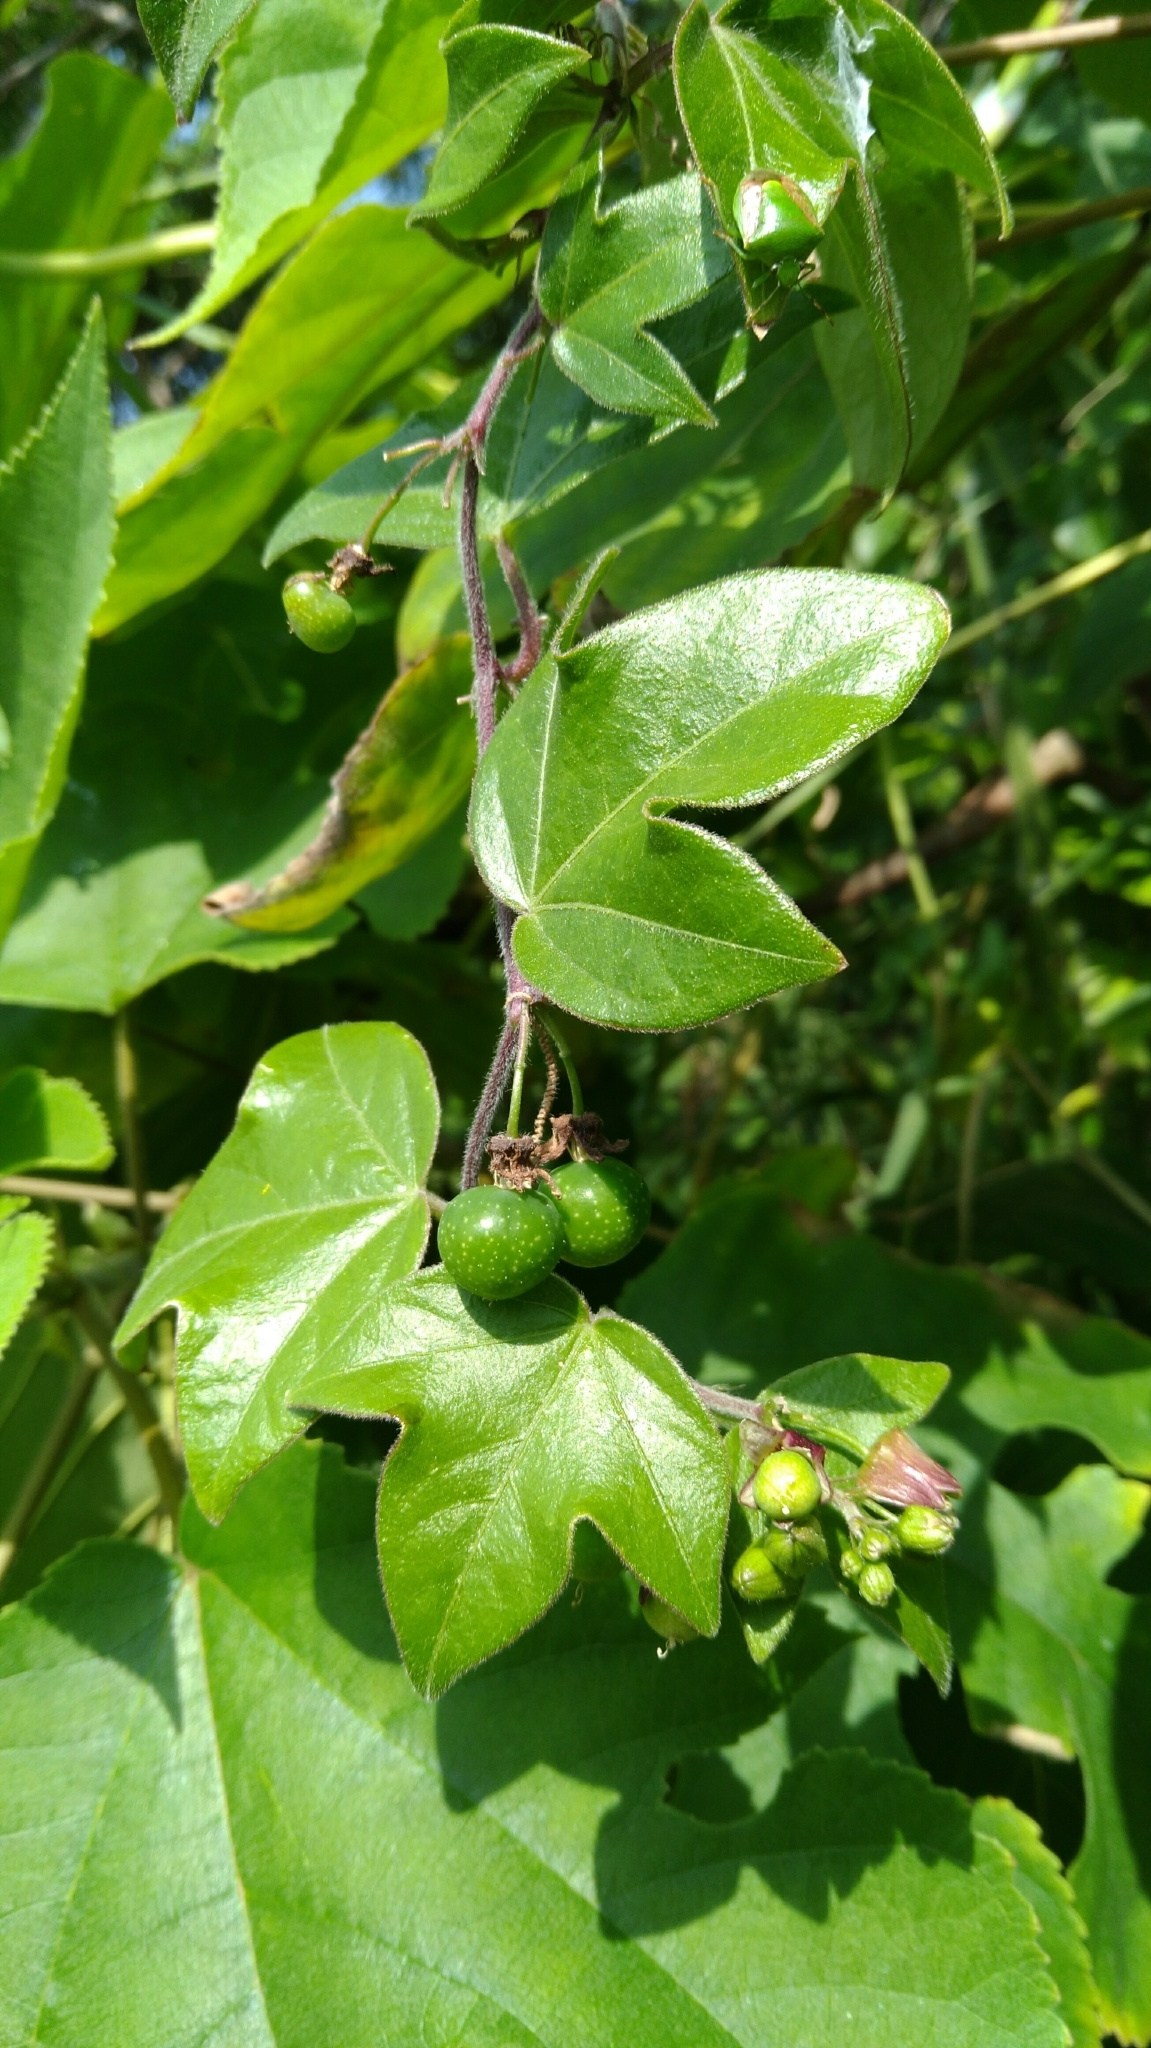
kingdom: Plantae
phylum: Tracheophyta
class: Magnoliopsida
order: Malpighiales
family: Passifloraceae
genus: Passiflora
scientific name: Passiflora suberosa
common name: Wild passionfruit
